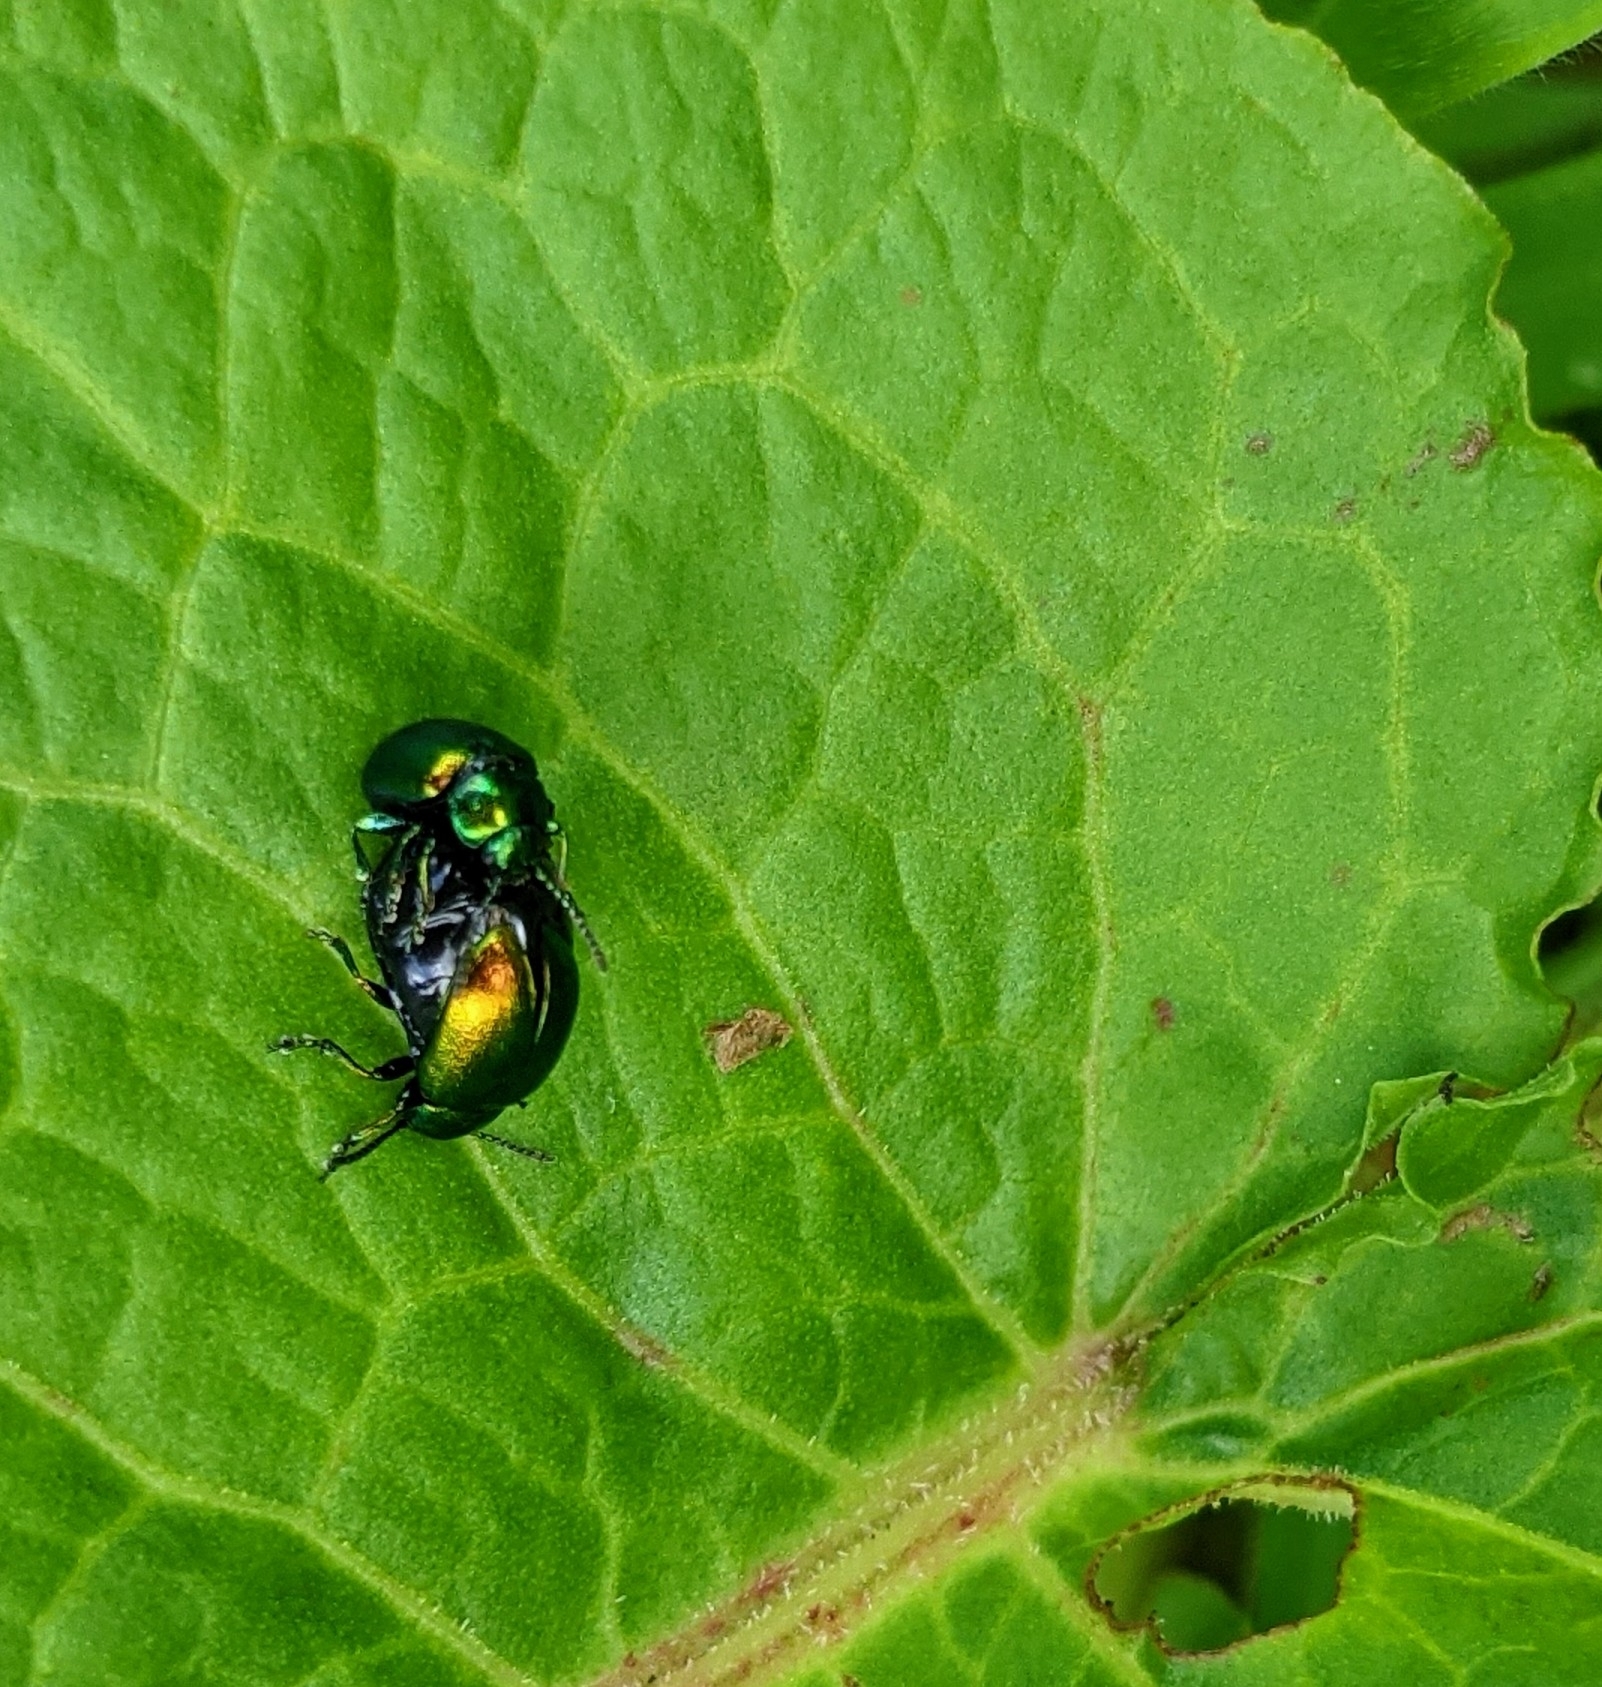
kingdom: Animalia
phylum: Arthropoda
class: Insecta
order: Coleoptera
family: Chrysomelidae
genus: Gastrophysa
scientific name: Gastrophysa viridula
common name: Green dock beetle
